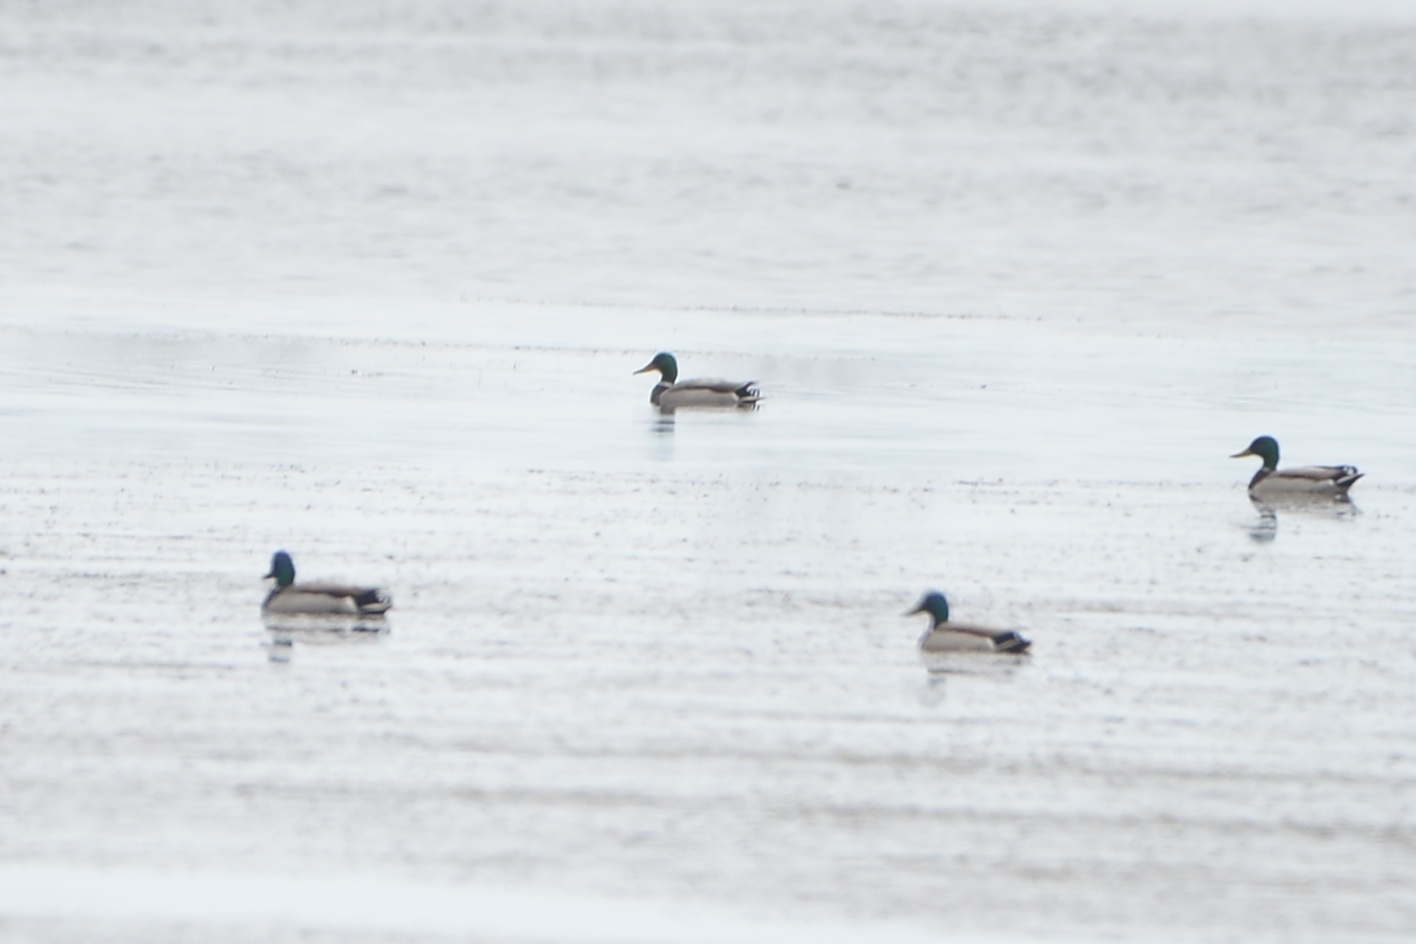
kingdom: Animalia
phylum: Chordata
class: Aves
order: Anseriformes
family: Anatidae
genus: Anas
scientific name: Anas platyrhynchos
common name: Mallard
